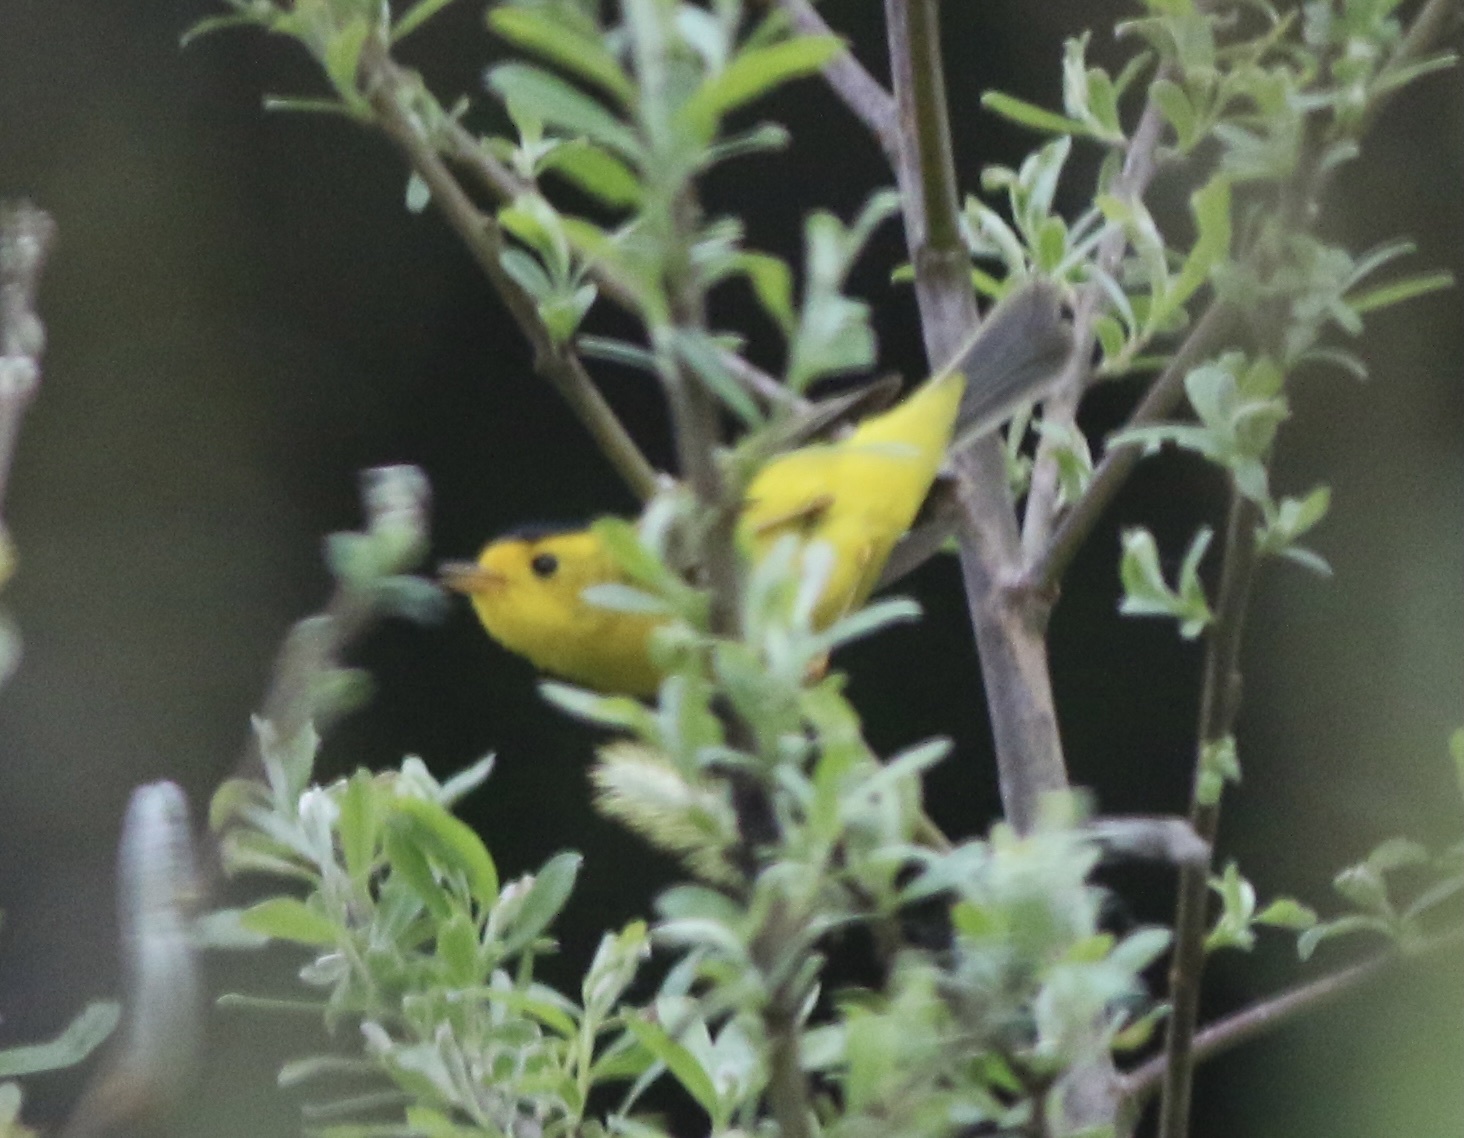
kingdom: Animalia
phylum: Chordata
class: Aves
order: Passeriformes
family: Parulidae
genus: Cardellina
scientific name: Cardellina pusilla
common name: Wilson's warbler
